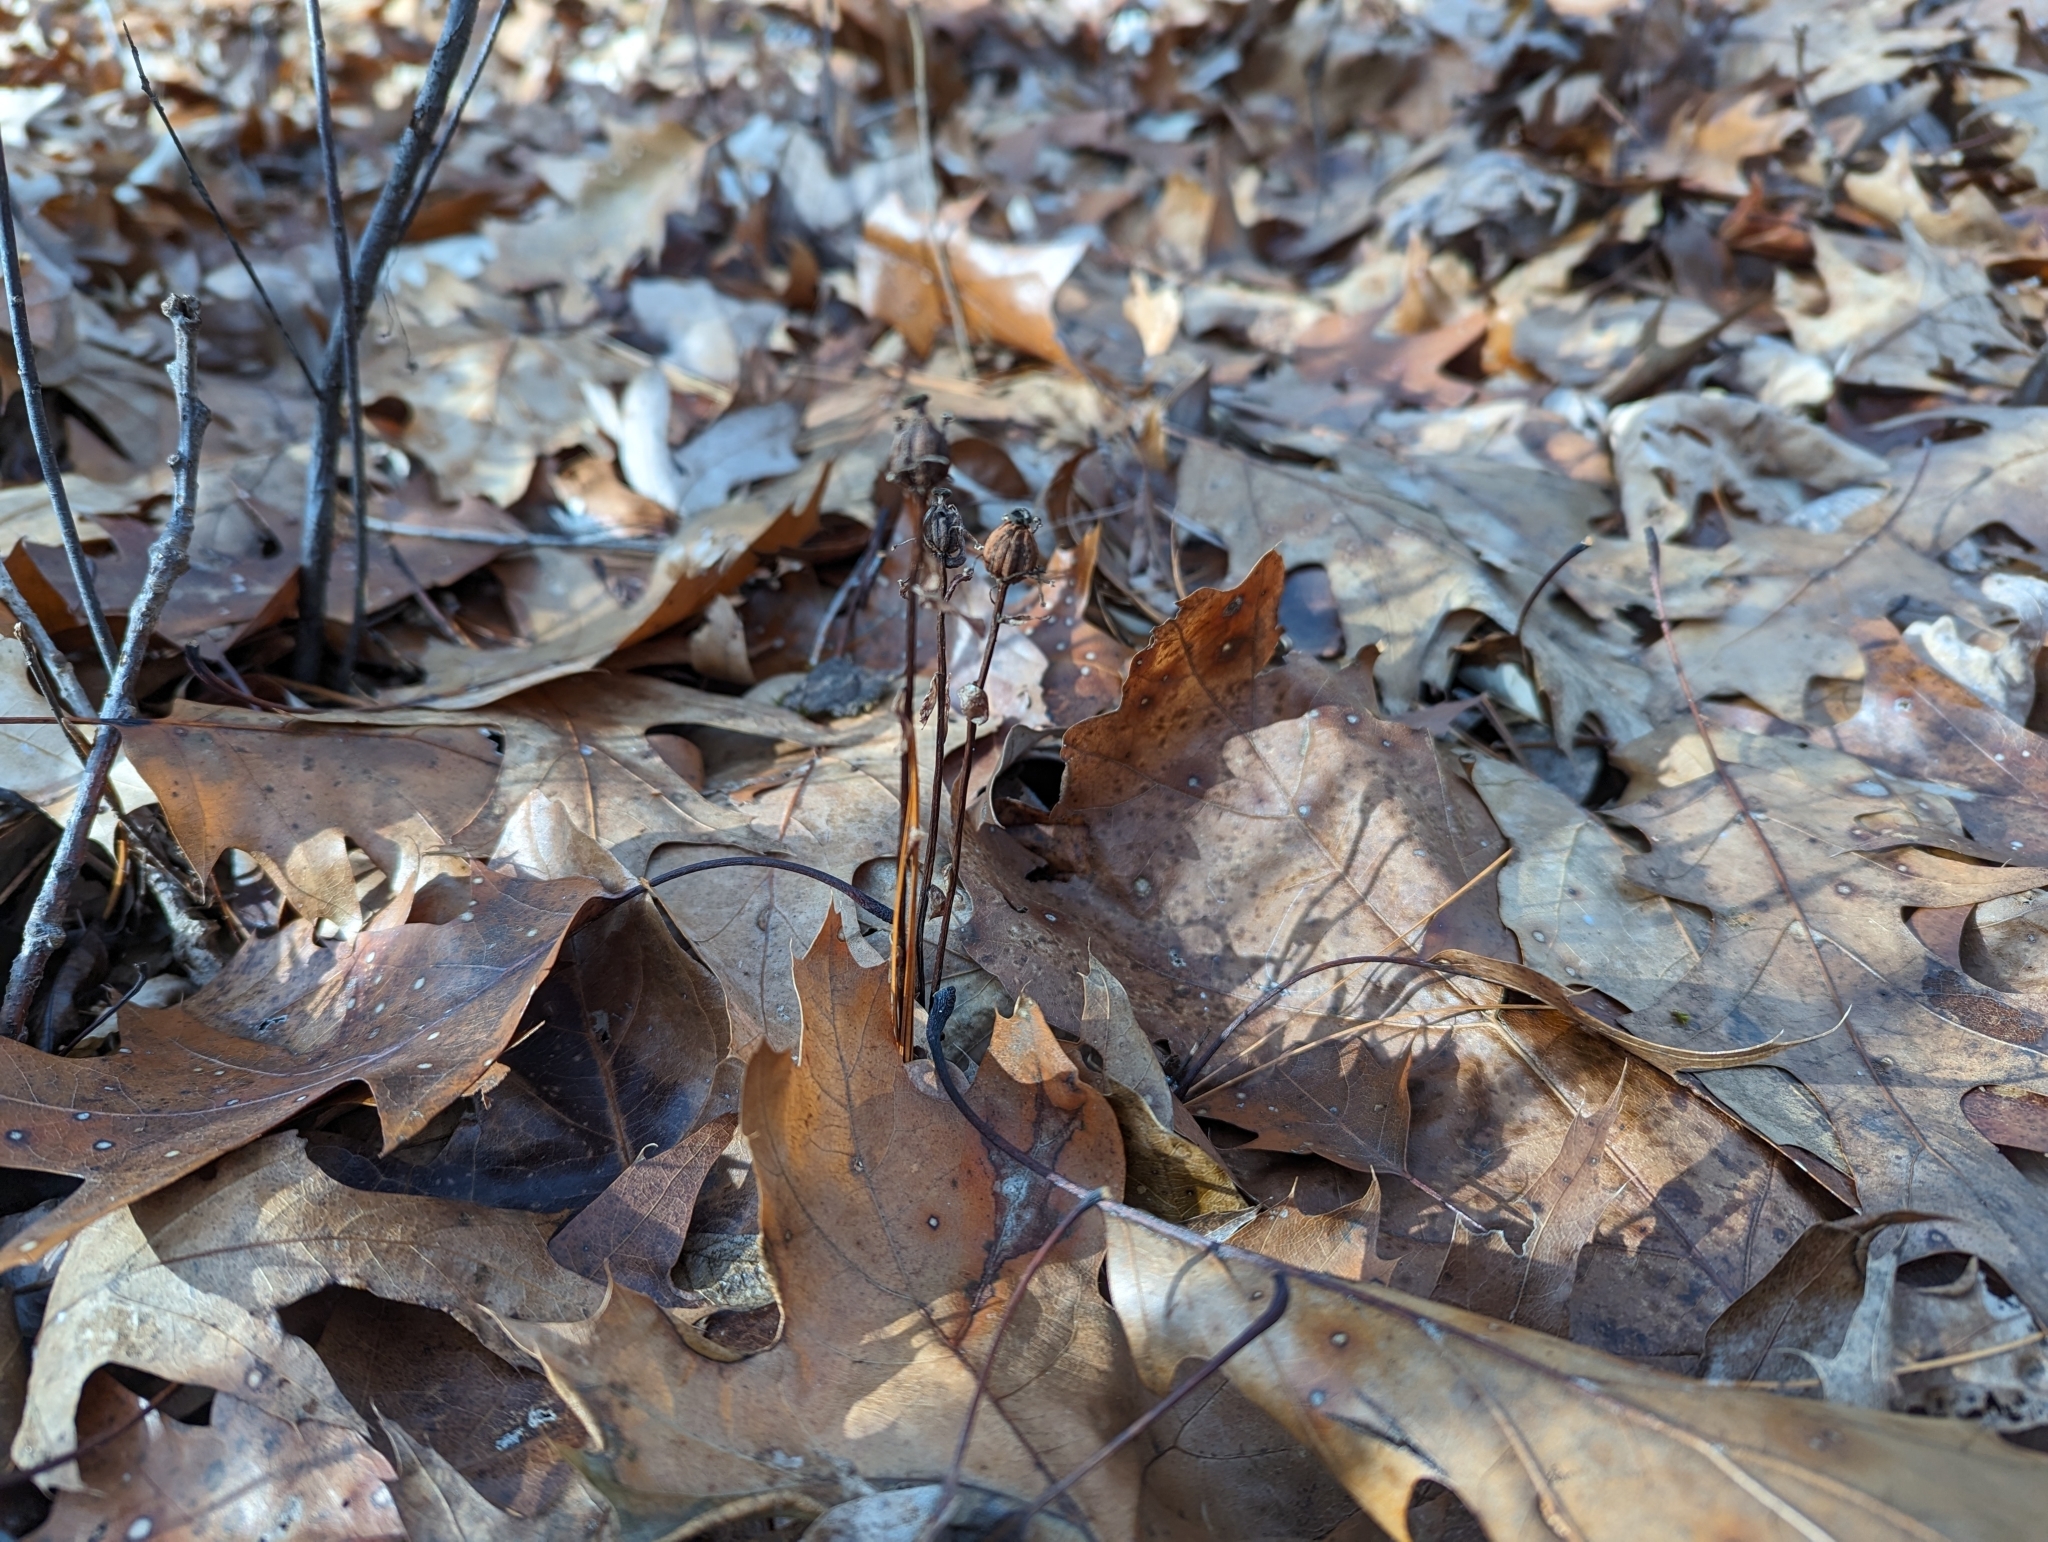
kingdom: Plantae
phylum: Tracheophyta
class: Magnoliopsida
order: Ericales
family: Ericaceae
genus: Monotropa
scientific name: Monotropa uniflora
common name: Convulsion root
